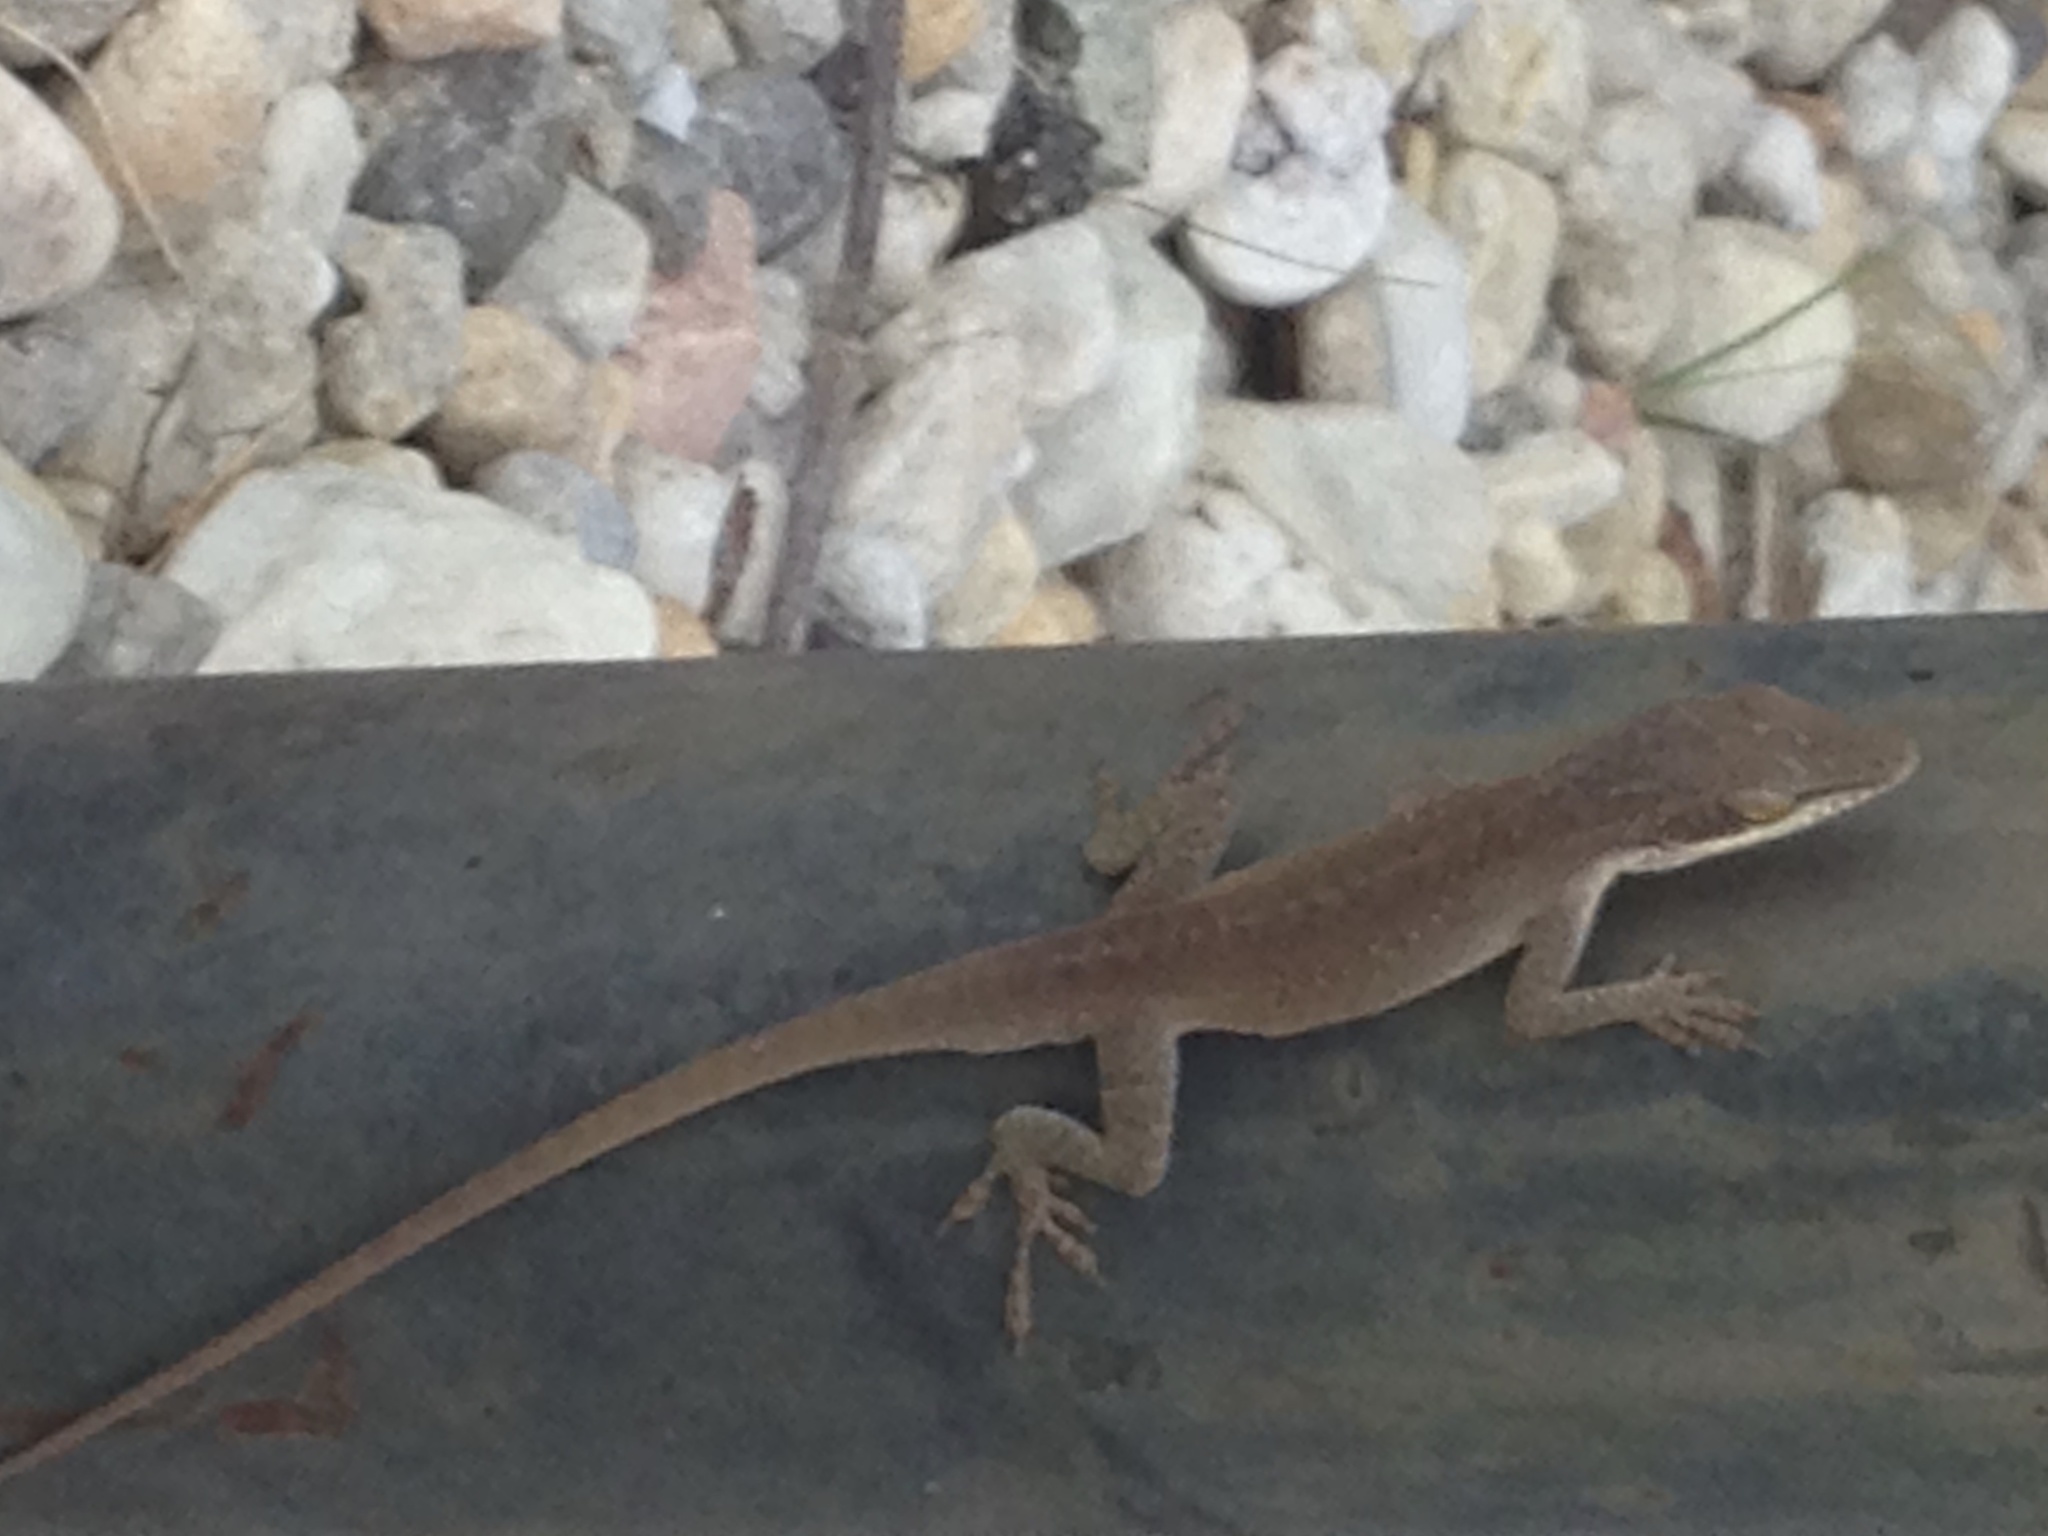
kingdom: Animalia
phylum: Chordata
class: Squamata
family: Dactyloidae
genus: Anolis
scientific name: Anolis carolinensis
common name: Green anole
